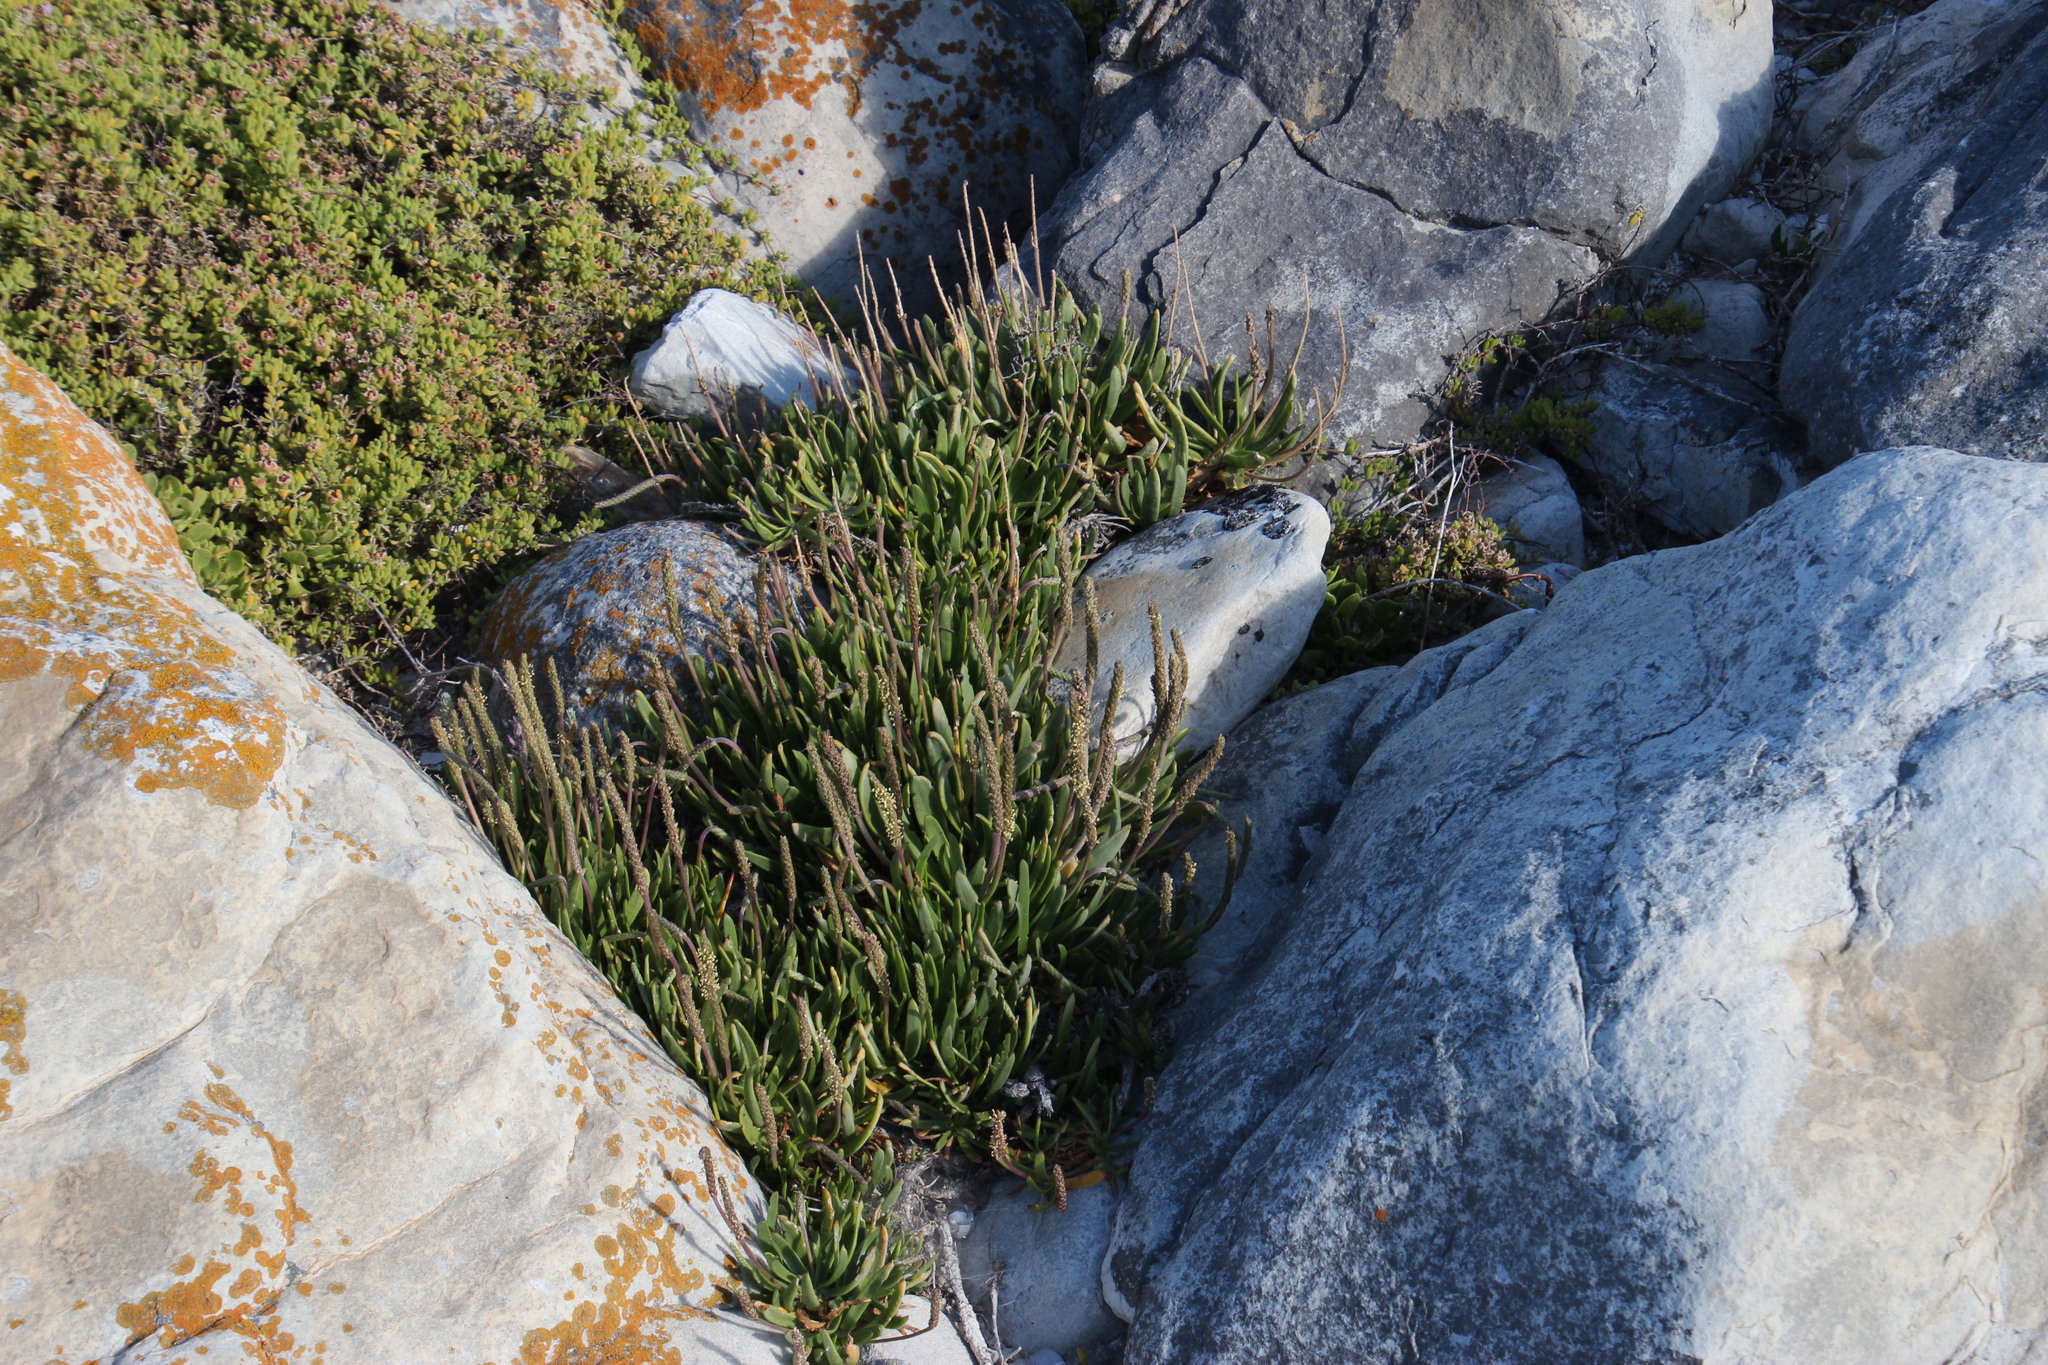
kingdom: Plantae
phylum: Tracheophyta
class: Magnoliopsida
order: Lamiales
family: Plantaginaceae
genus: Plantago
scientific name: Plantago carnosa
